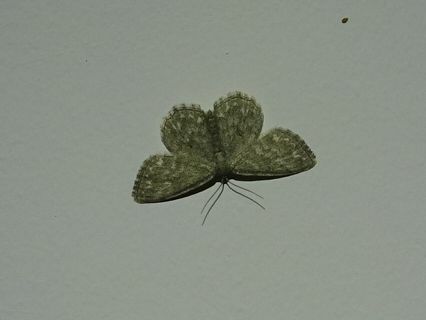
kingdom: Animalia
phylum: Arthropoda
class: Insecta
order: Lepidoptera
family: Geometridae
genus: Scopula
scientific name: Scopula immorata
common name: Lewes wave
